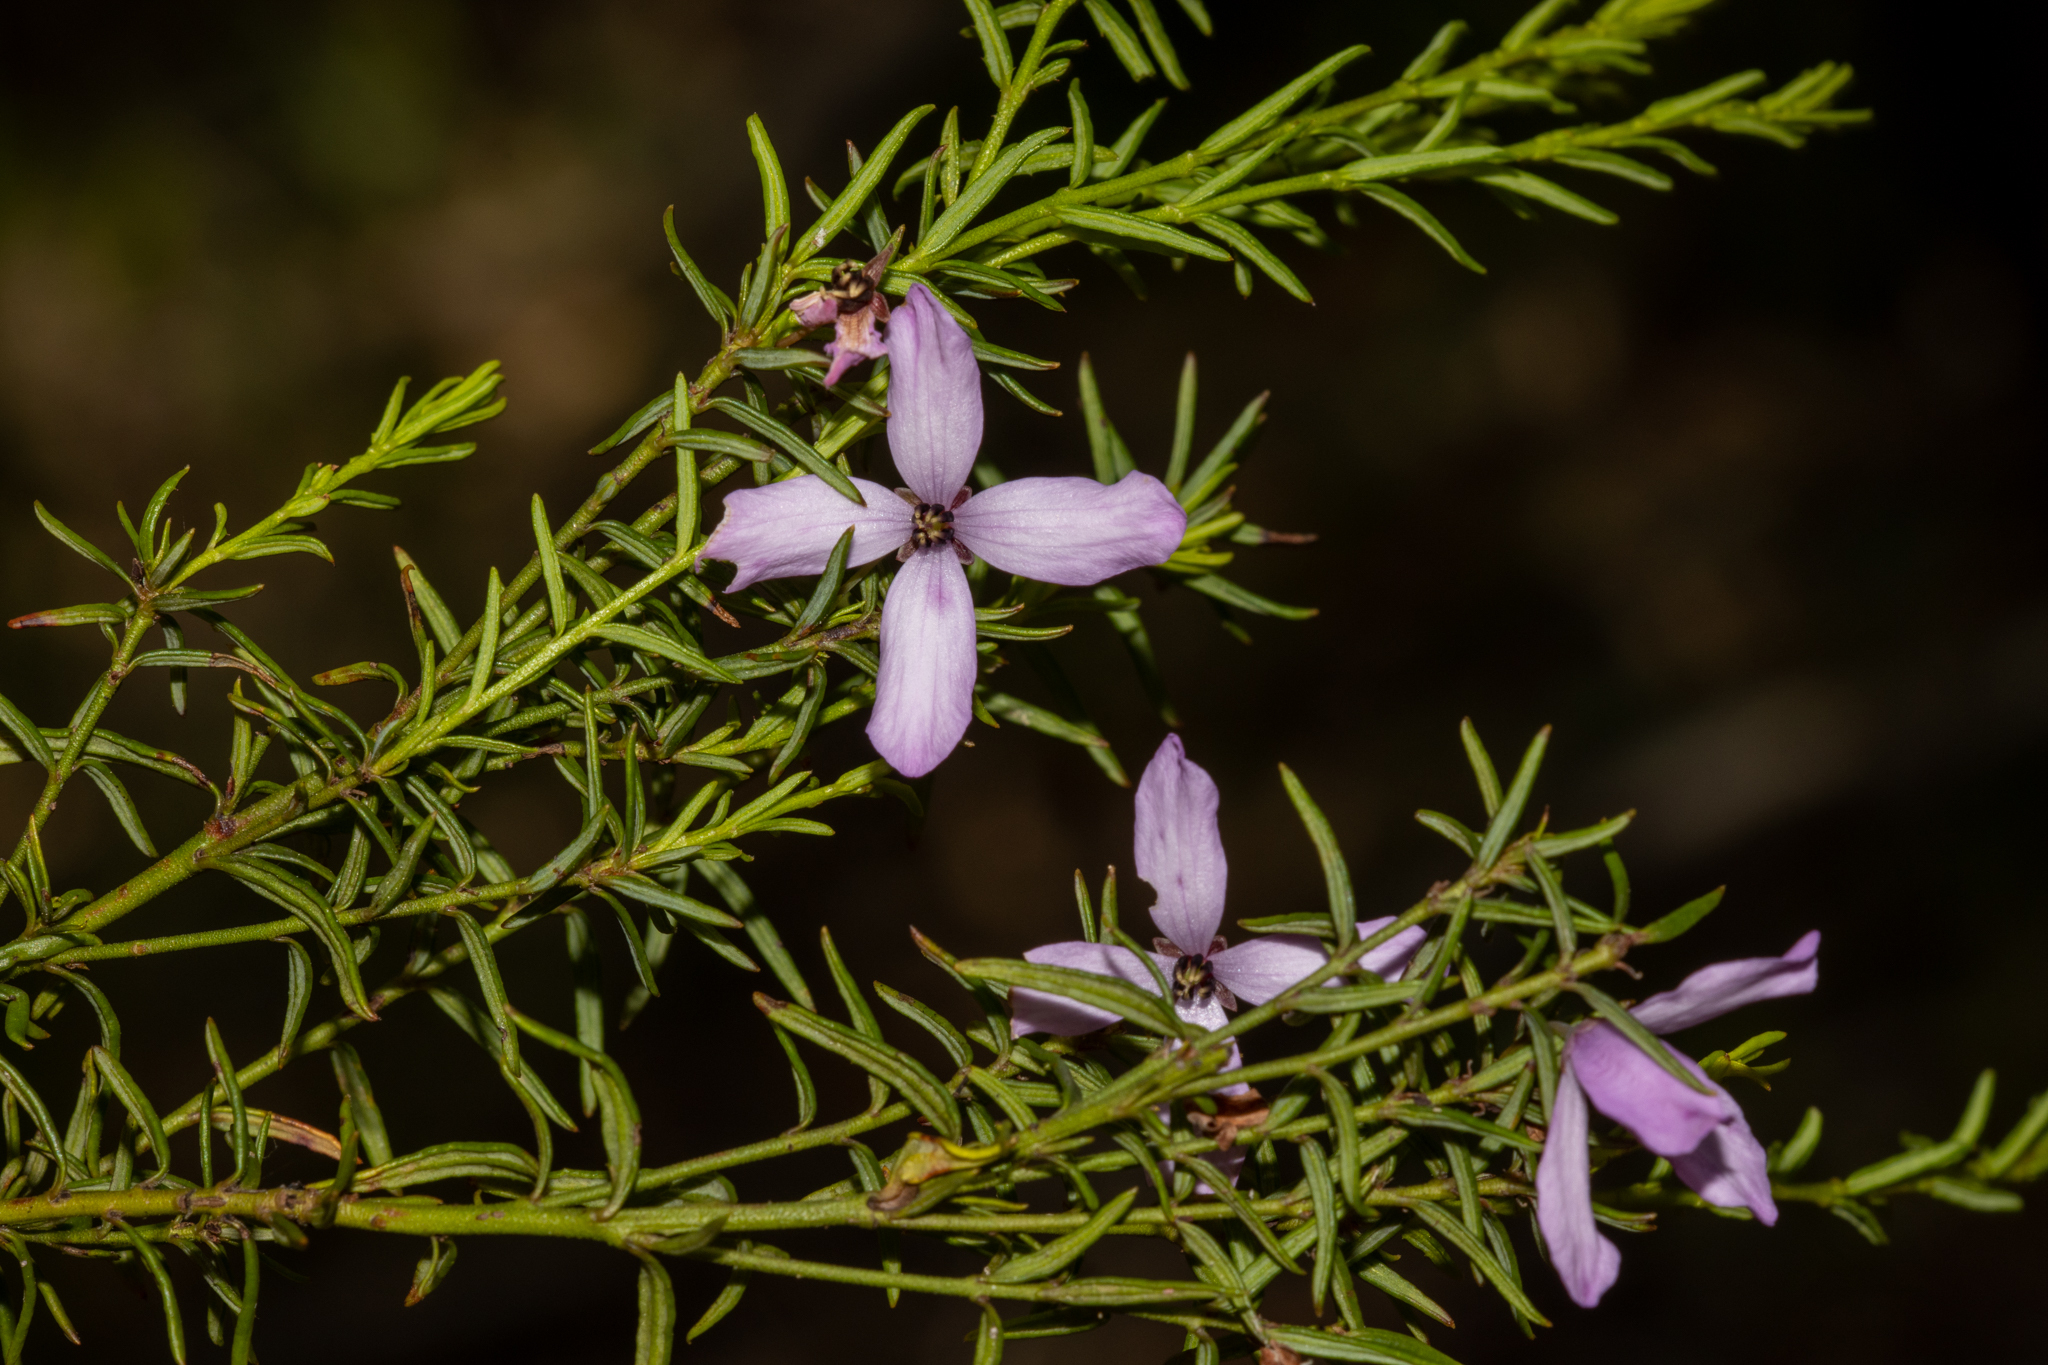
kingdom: Plantae
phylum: Tracheophyta
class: Magnoliopsida
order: Oxalidales
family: Elaeocarpaceae
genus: Tetratheca
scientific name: Tetratheca pilosa
